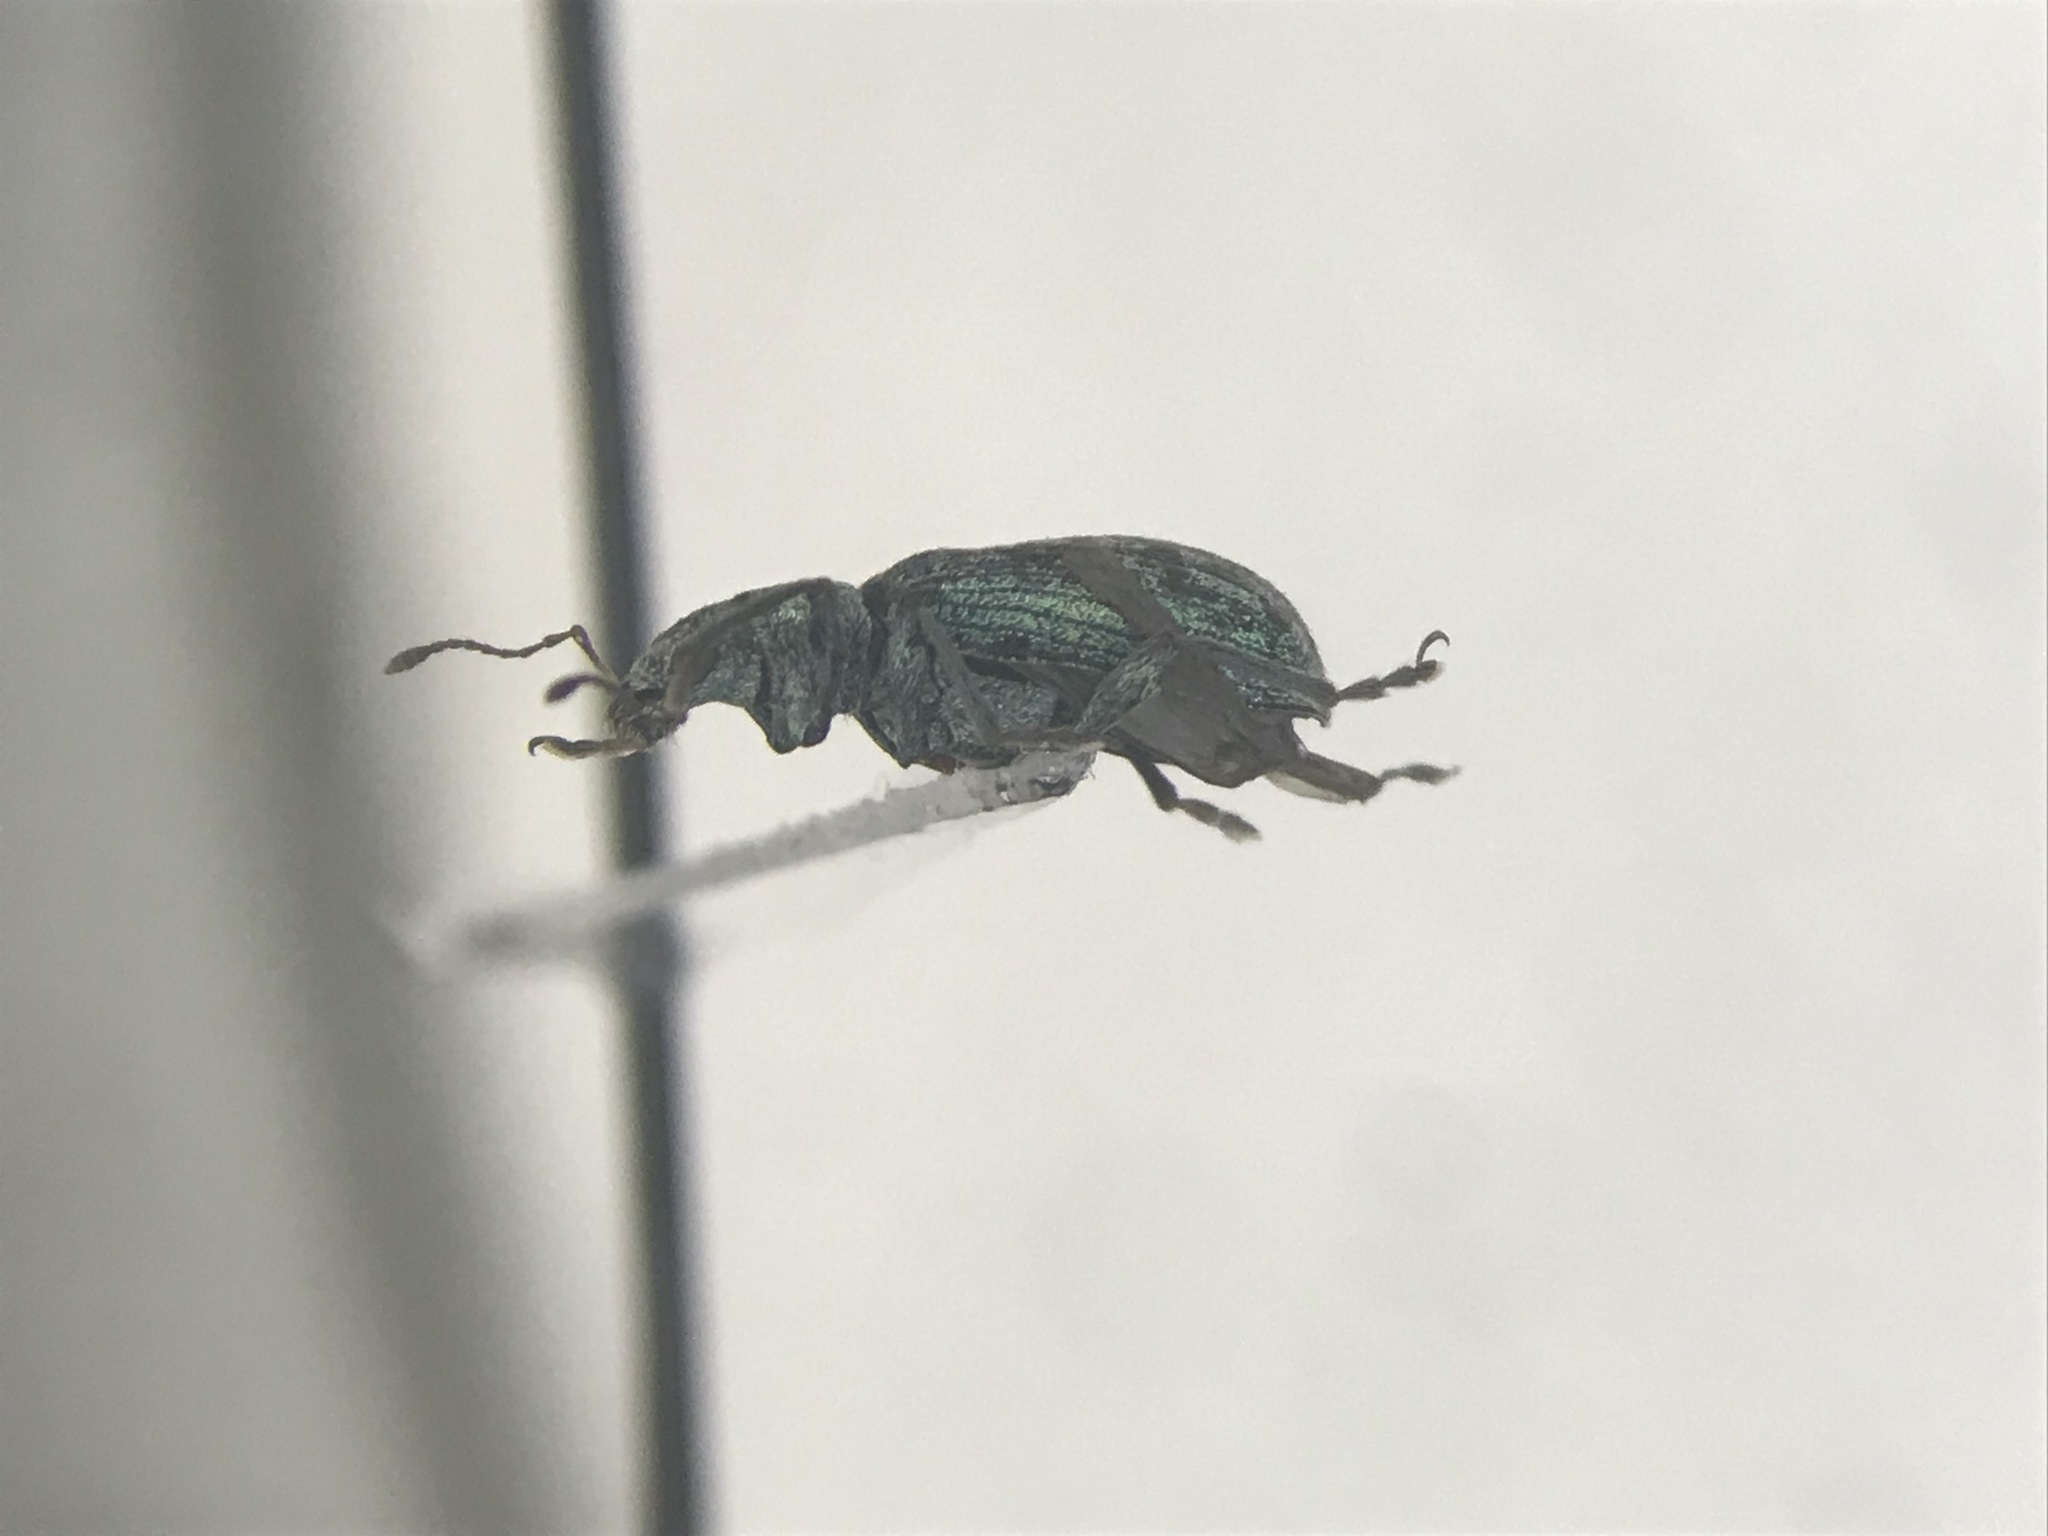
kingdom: Animalia
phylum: Arthropoda
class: Insecta
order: Coleoptera
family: Curculionidae
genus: Polydrusus
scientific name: Polydrusus cervinus
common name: Weevil
